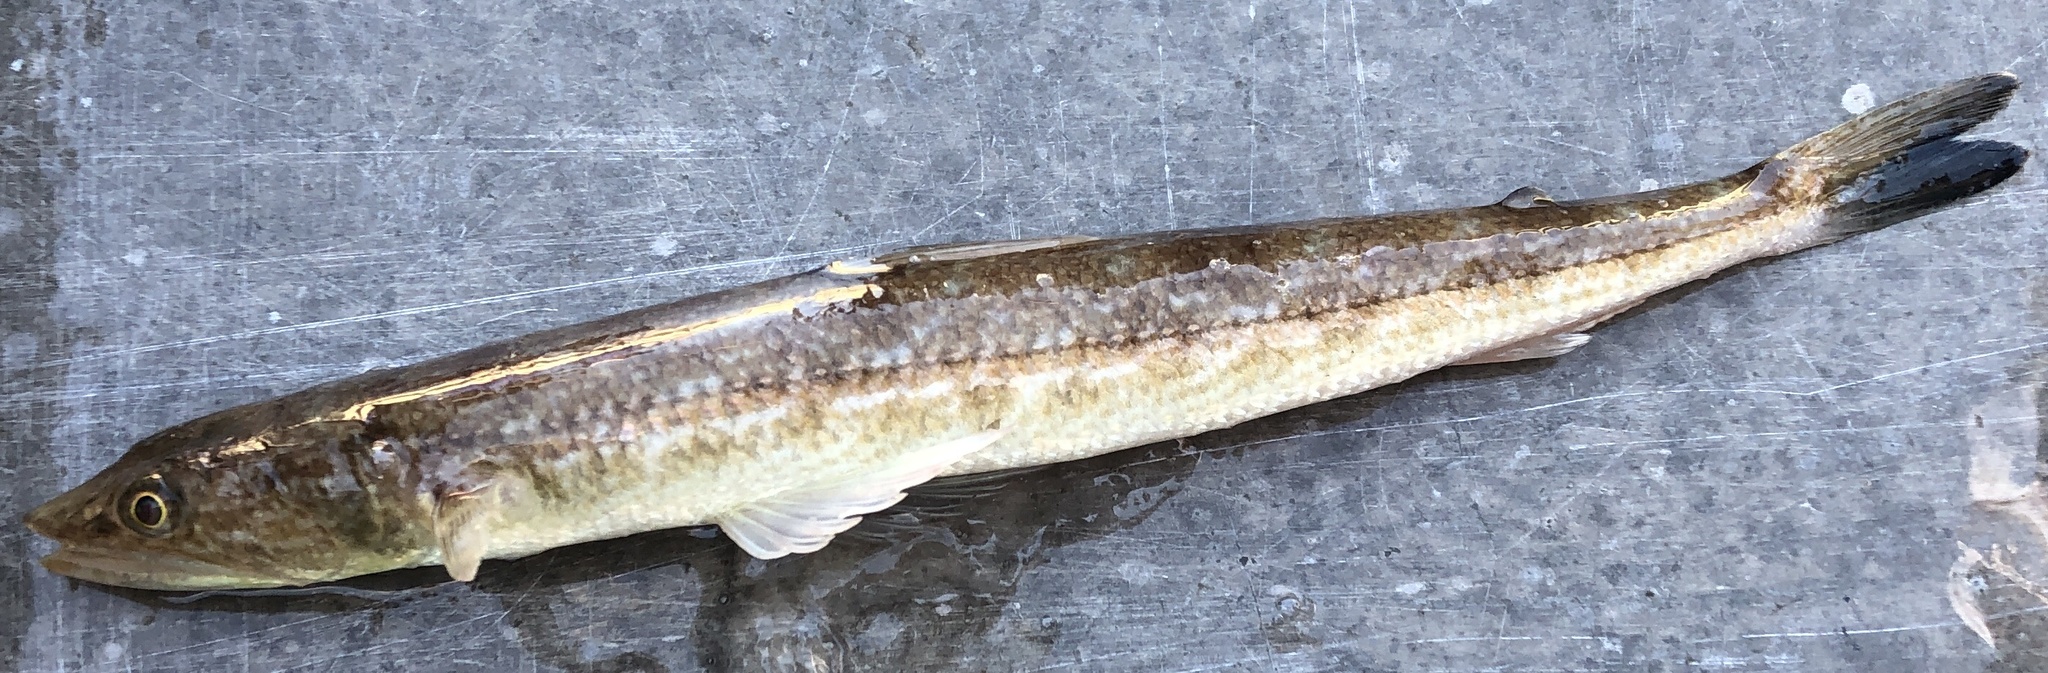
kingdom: Animalia
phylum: Chordata
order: Aulopiformes
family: Synodontidae
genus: Synodus
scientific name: Synodus foetens
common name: Inshore lizardfish
